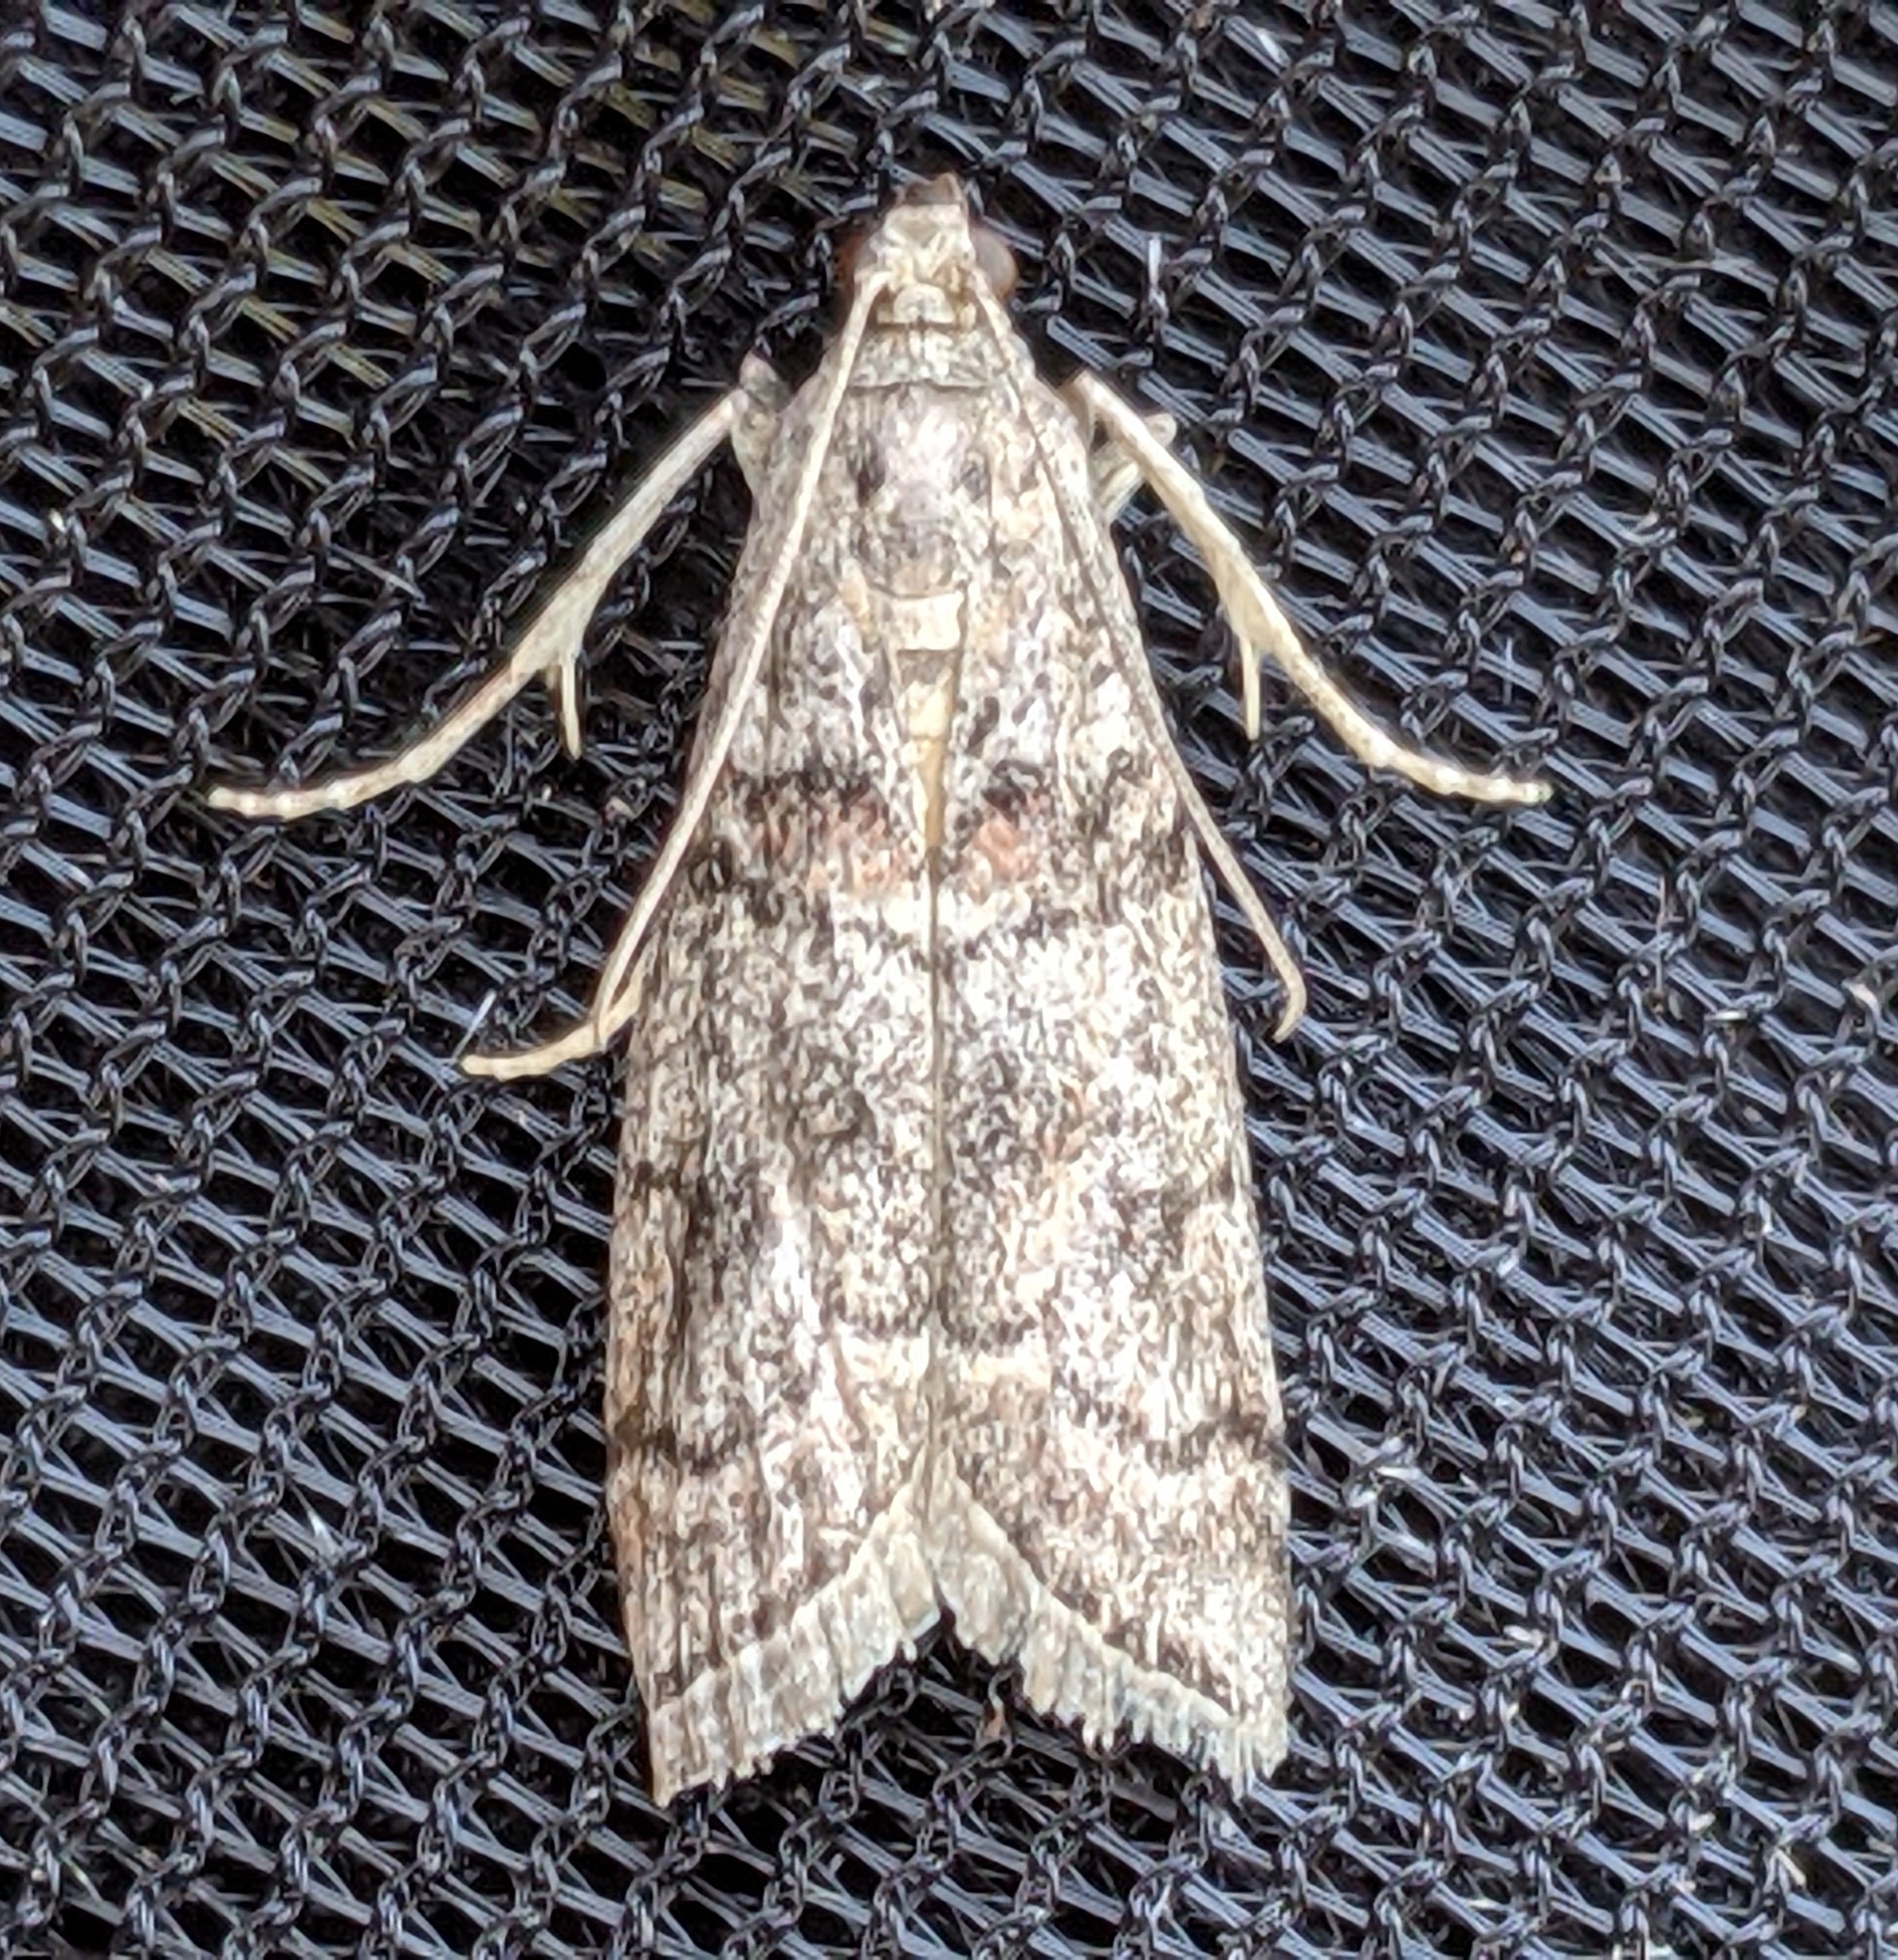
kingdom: Animalia
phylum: Arthropoda
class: Insecta
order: Lepidoptera
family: Pyralidae
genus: Promylea
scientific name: Promylea lunigerella
